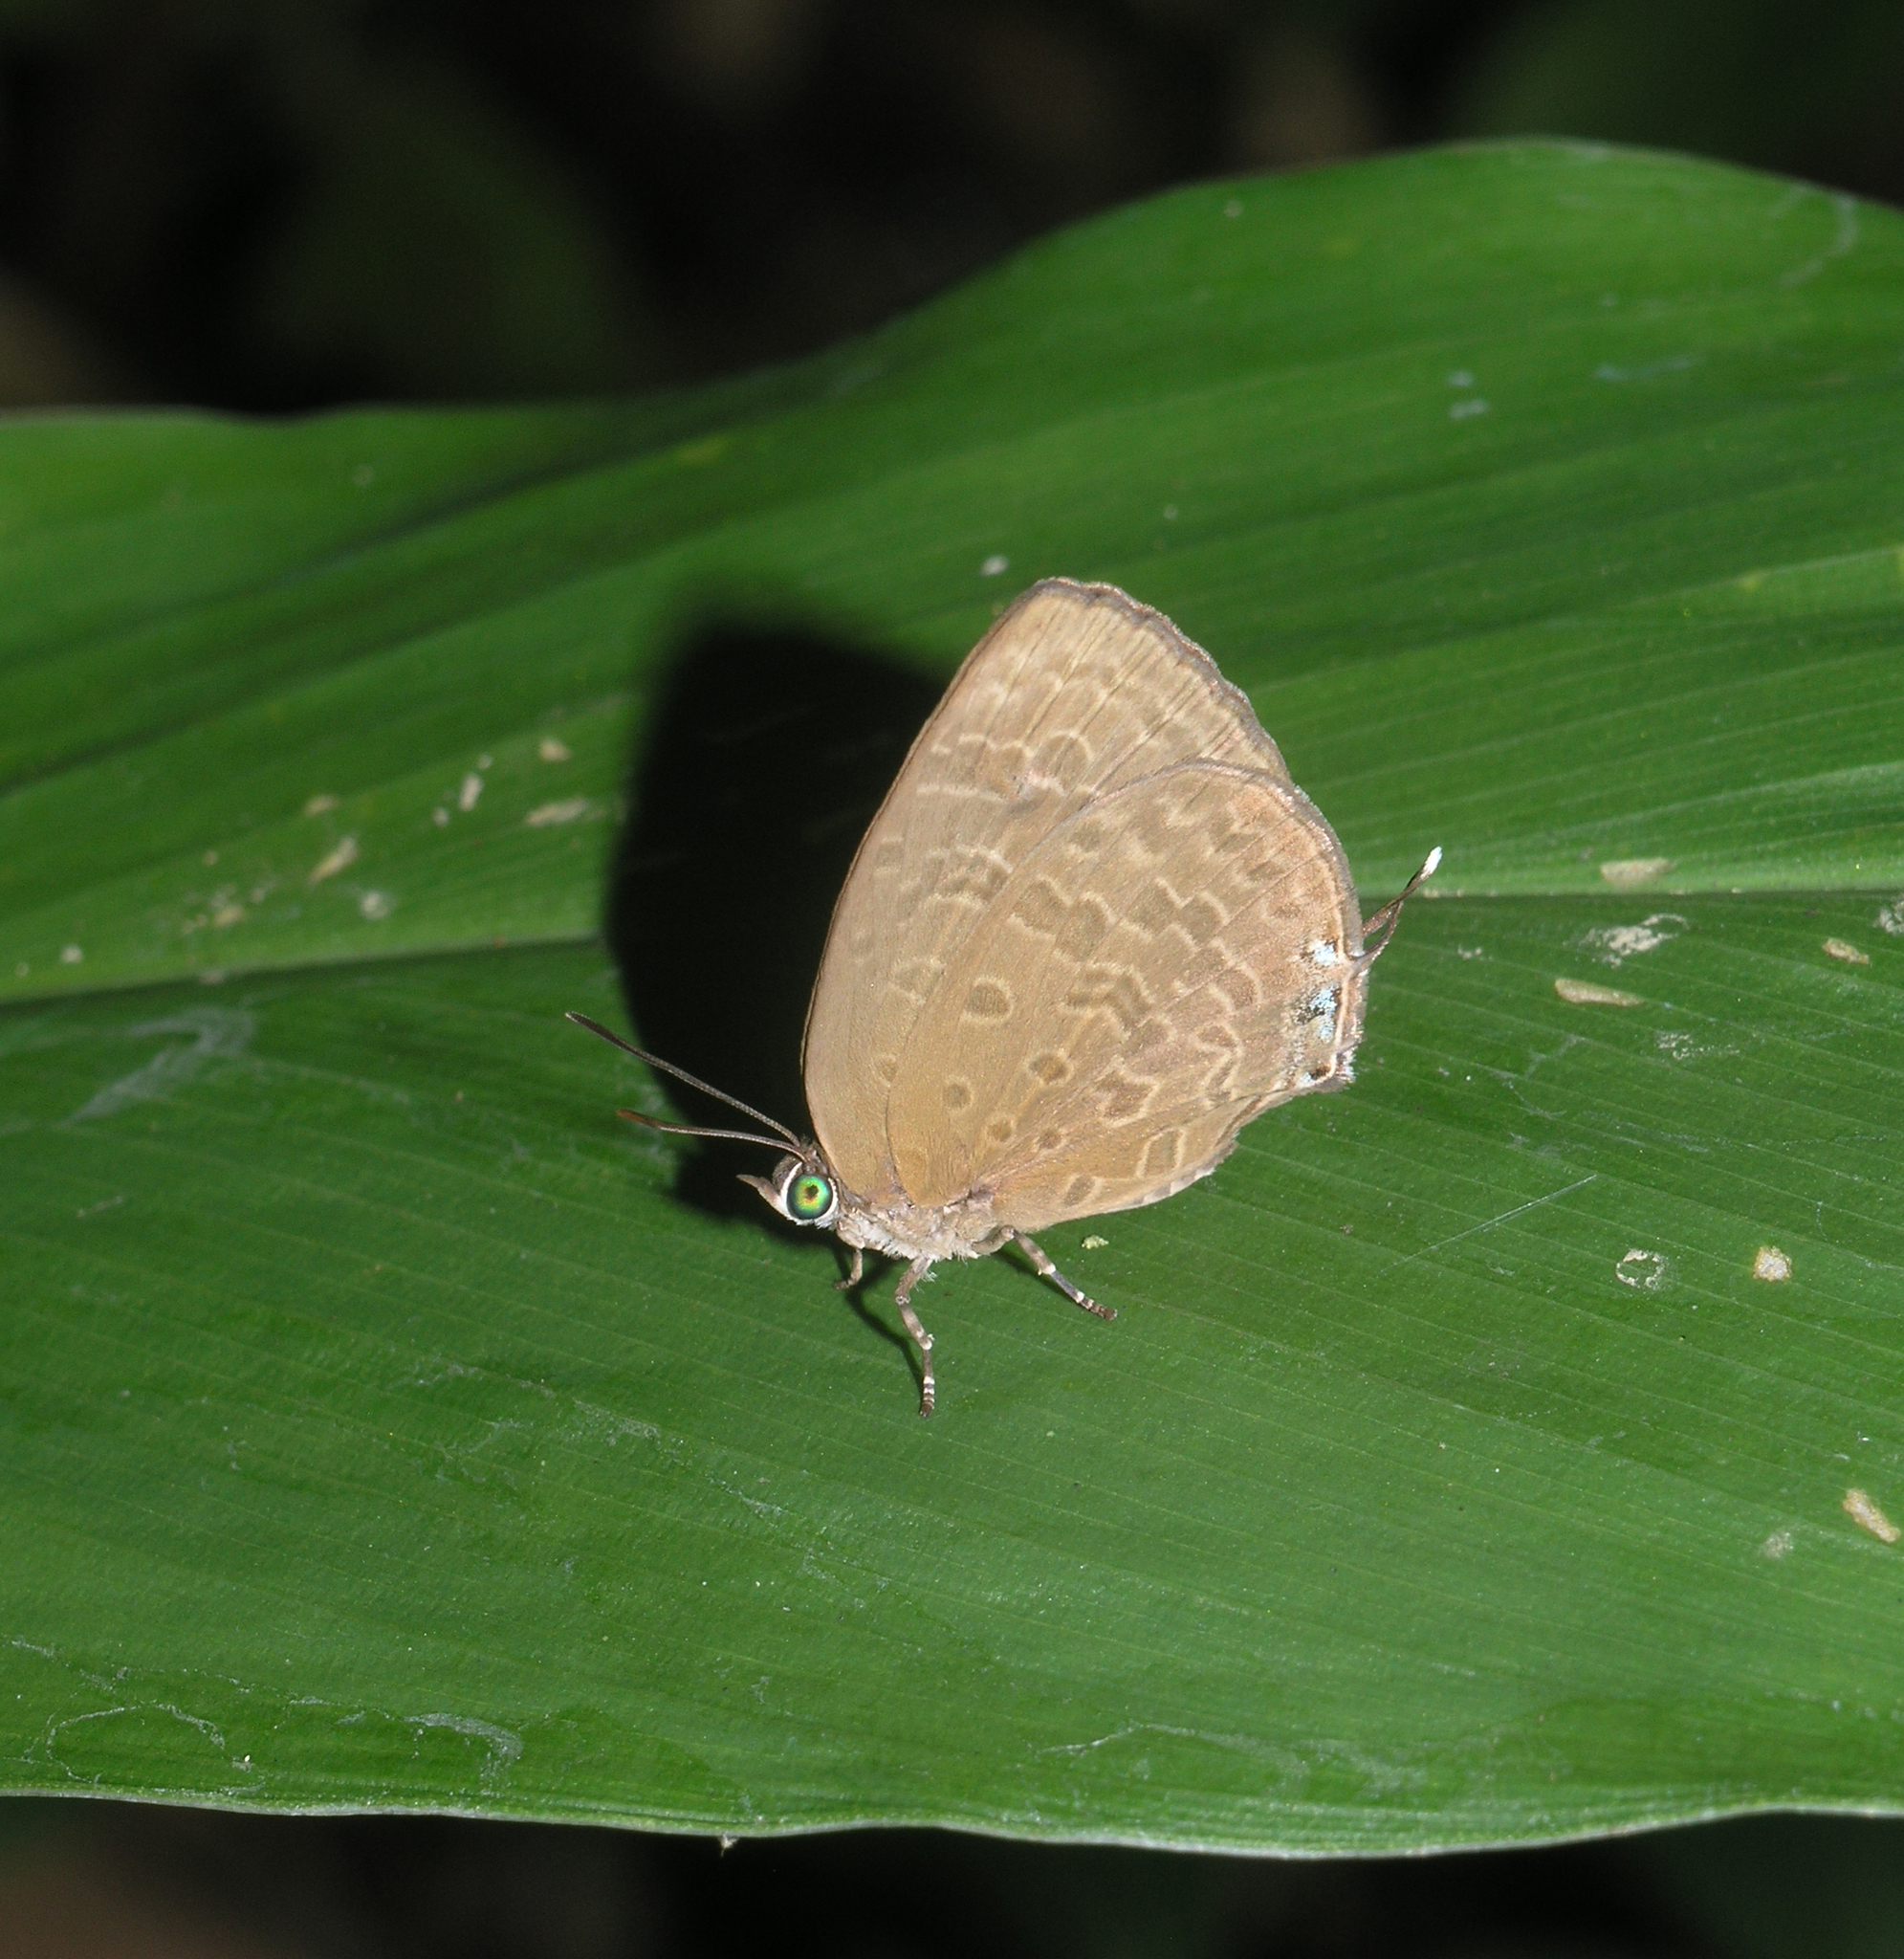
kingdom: Animalia
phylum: Arthropoda
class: Insecta
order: Lepidoptera
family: Lycaenidae
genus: Arhopala
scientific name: Arhopala elopura
